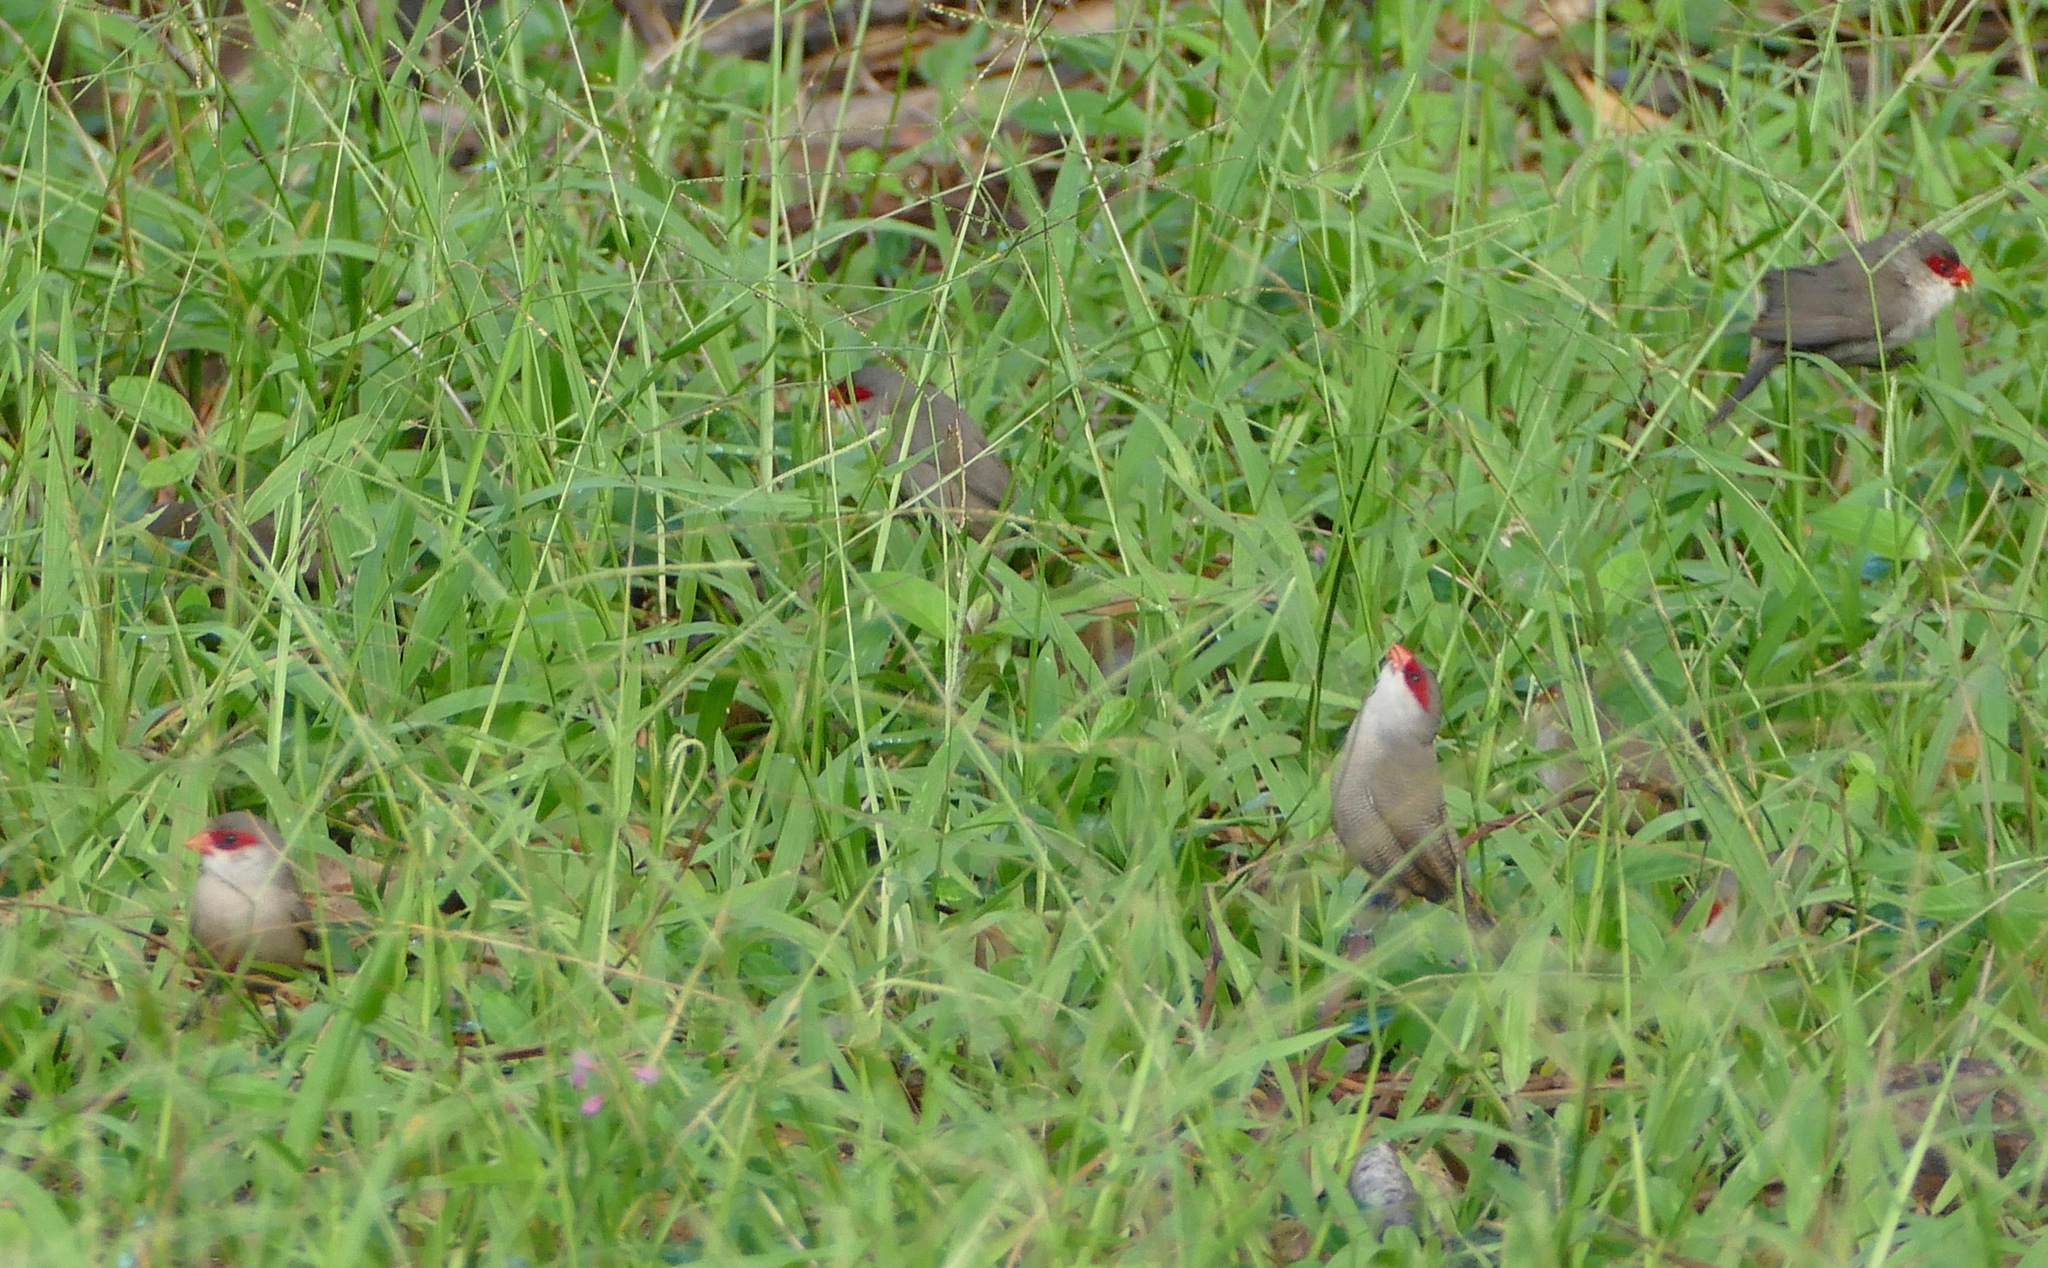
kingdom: Animalia
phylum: Chordata
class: Aves
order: Passeriformes
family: Estrildidae
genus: Estrilda
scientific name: Estrilda astrild
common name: Common waxbill
